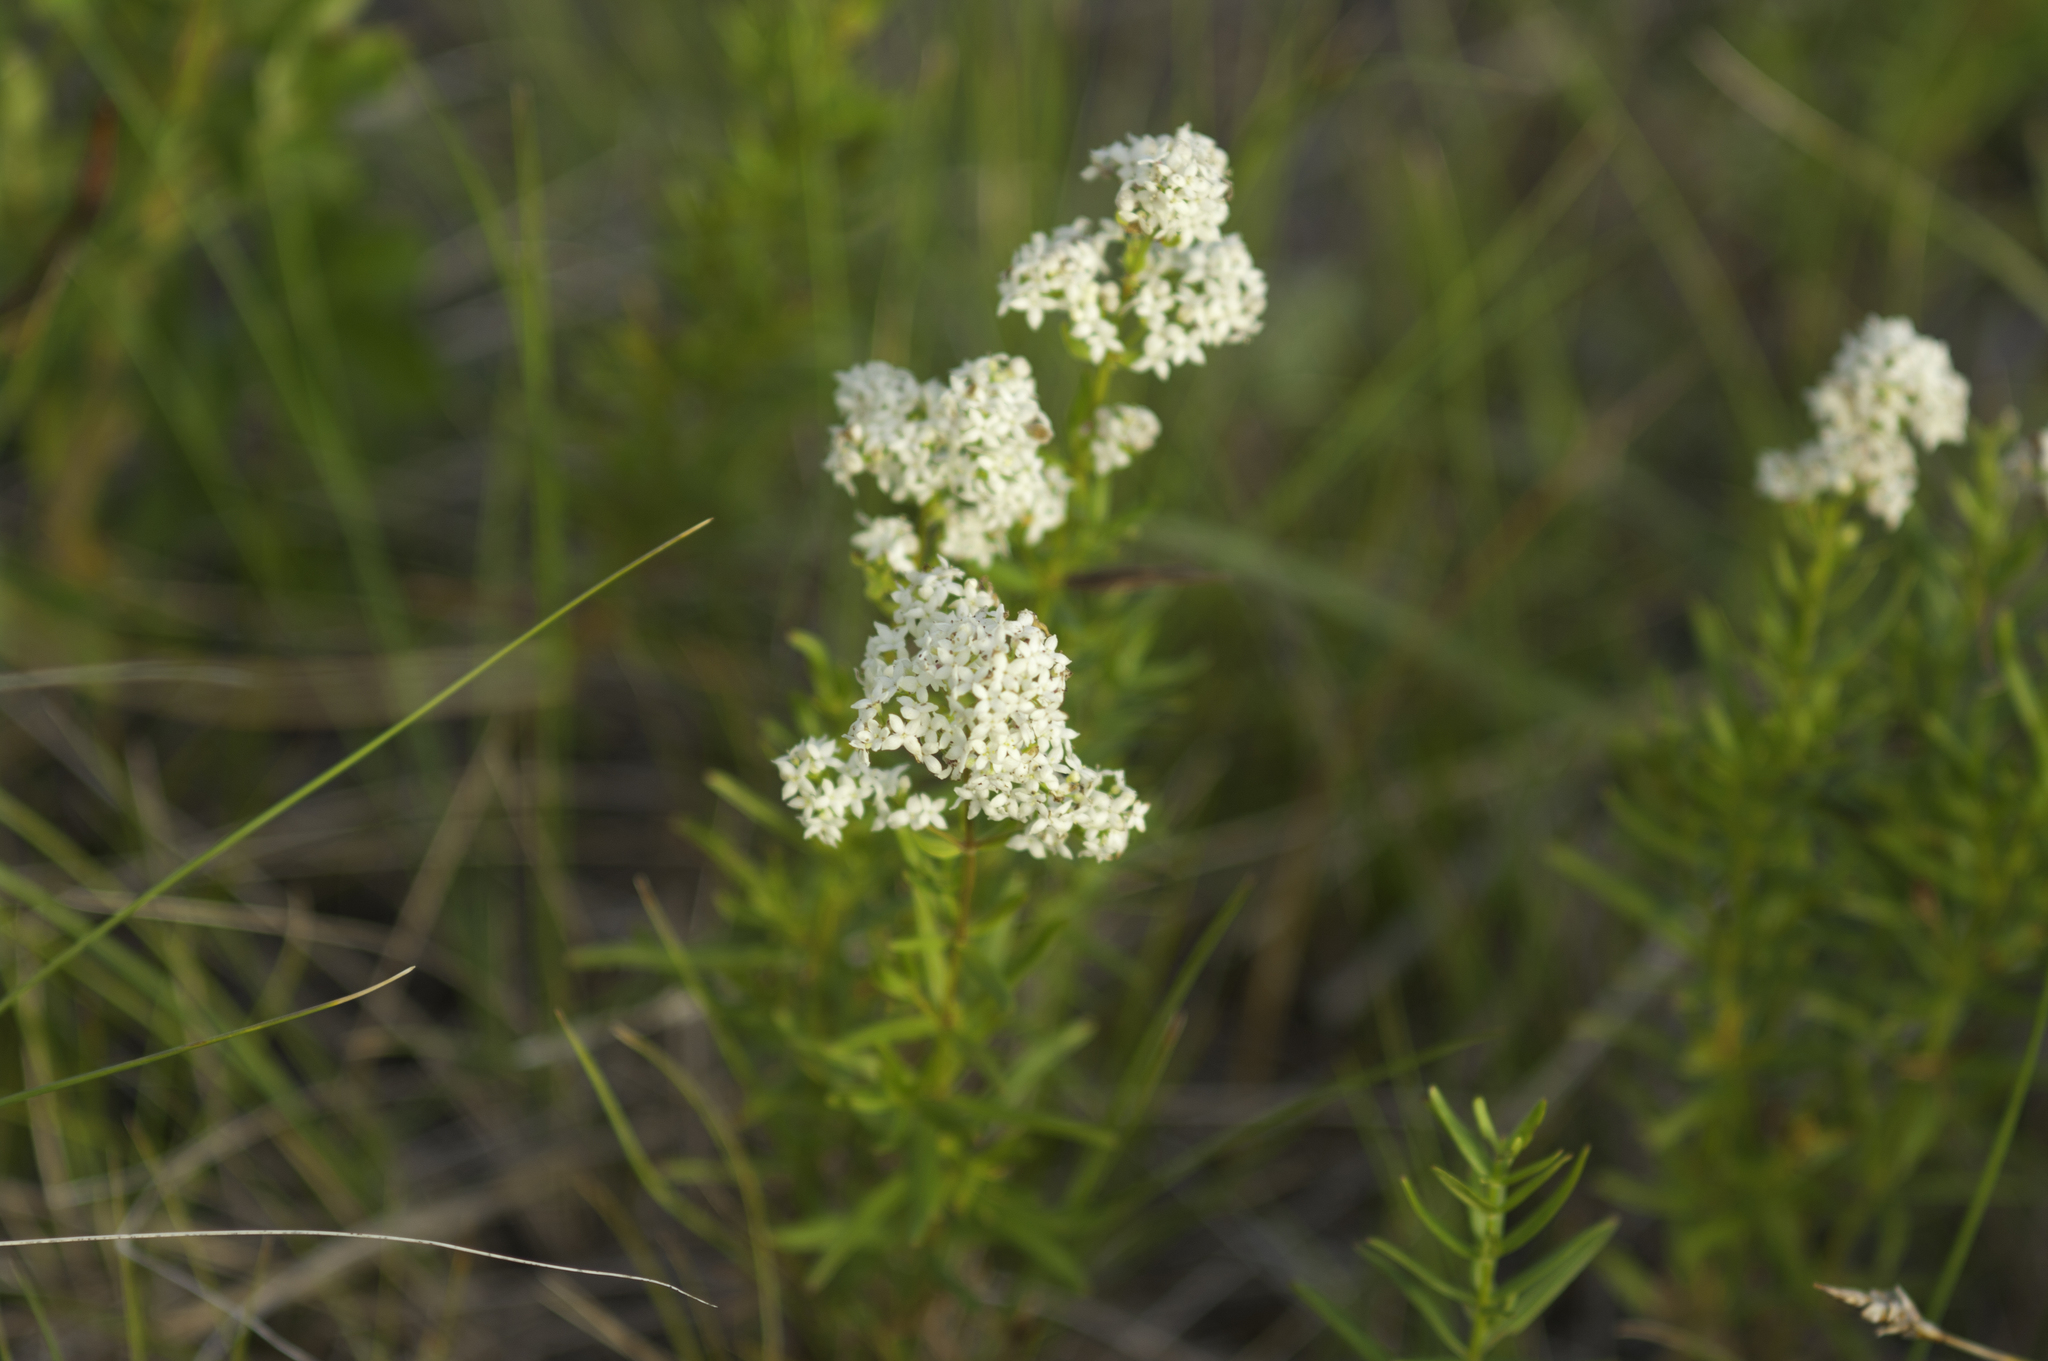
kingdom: Plantae
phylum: Tracheophyta
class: Magnoliopsida
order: Gentianales
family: Rubiaceae
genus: Galium
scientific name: Galium boreale
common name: Northern bedstraw
